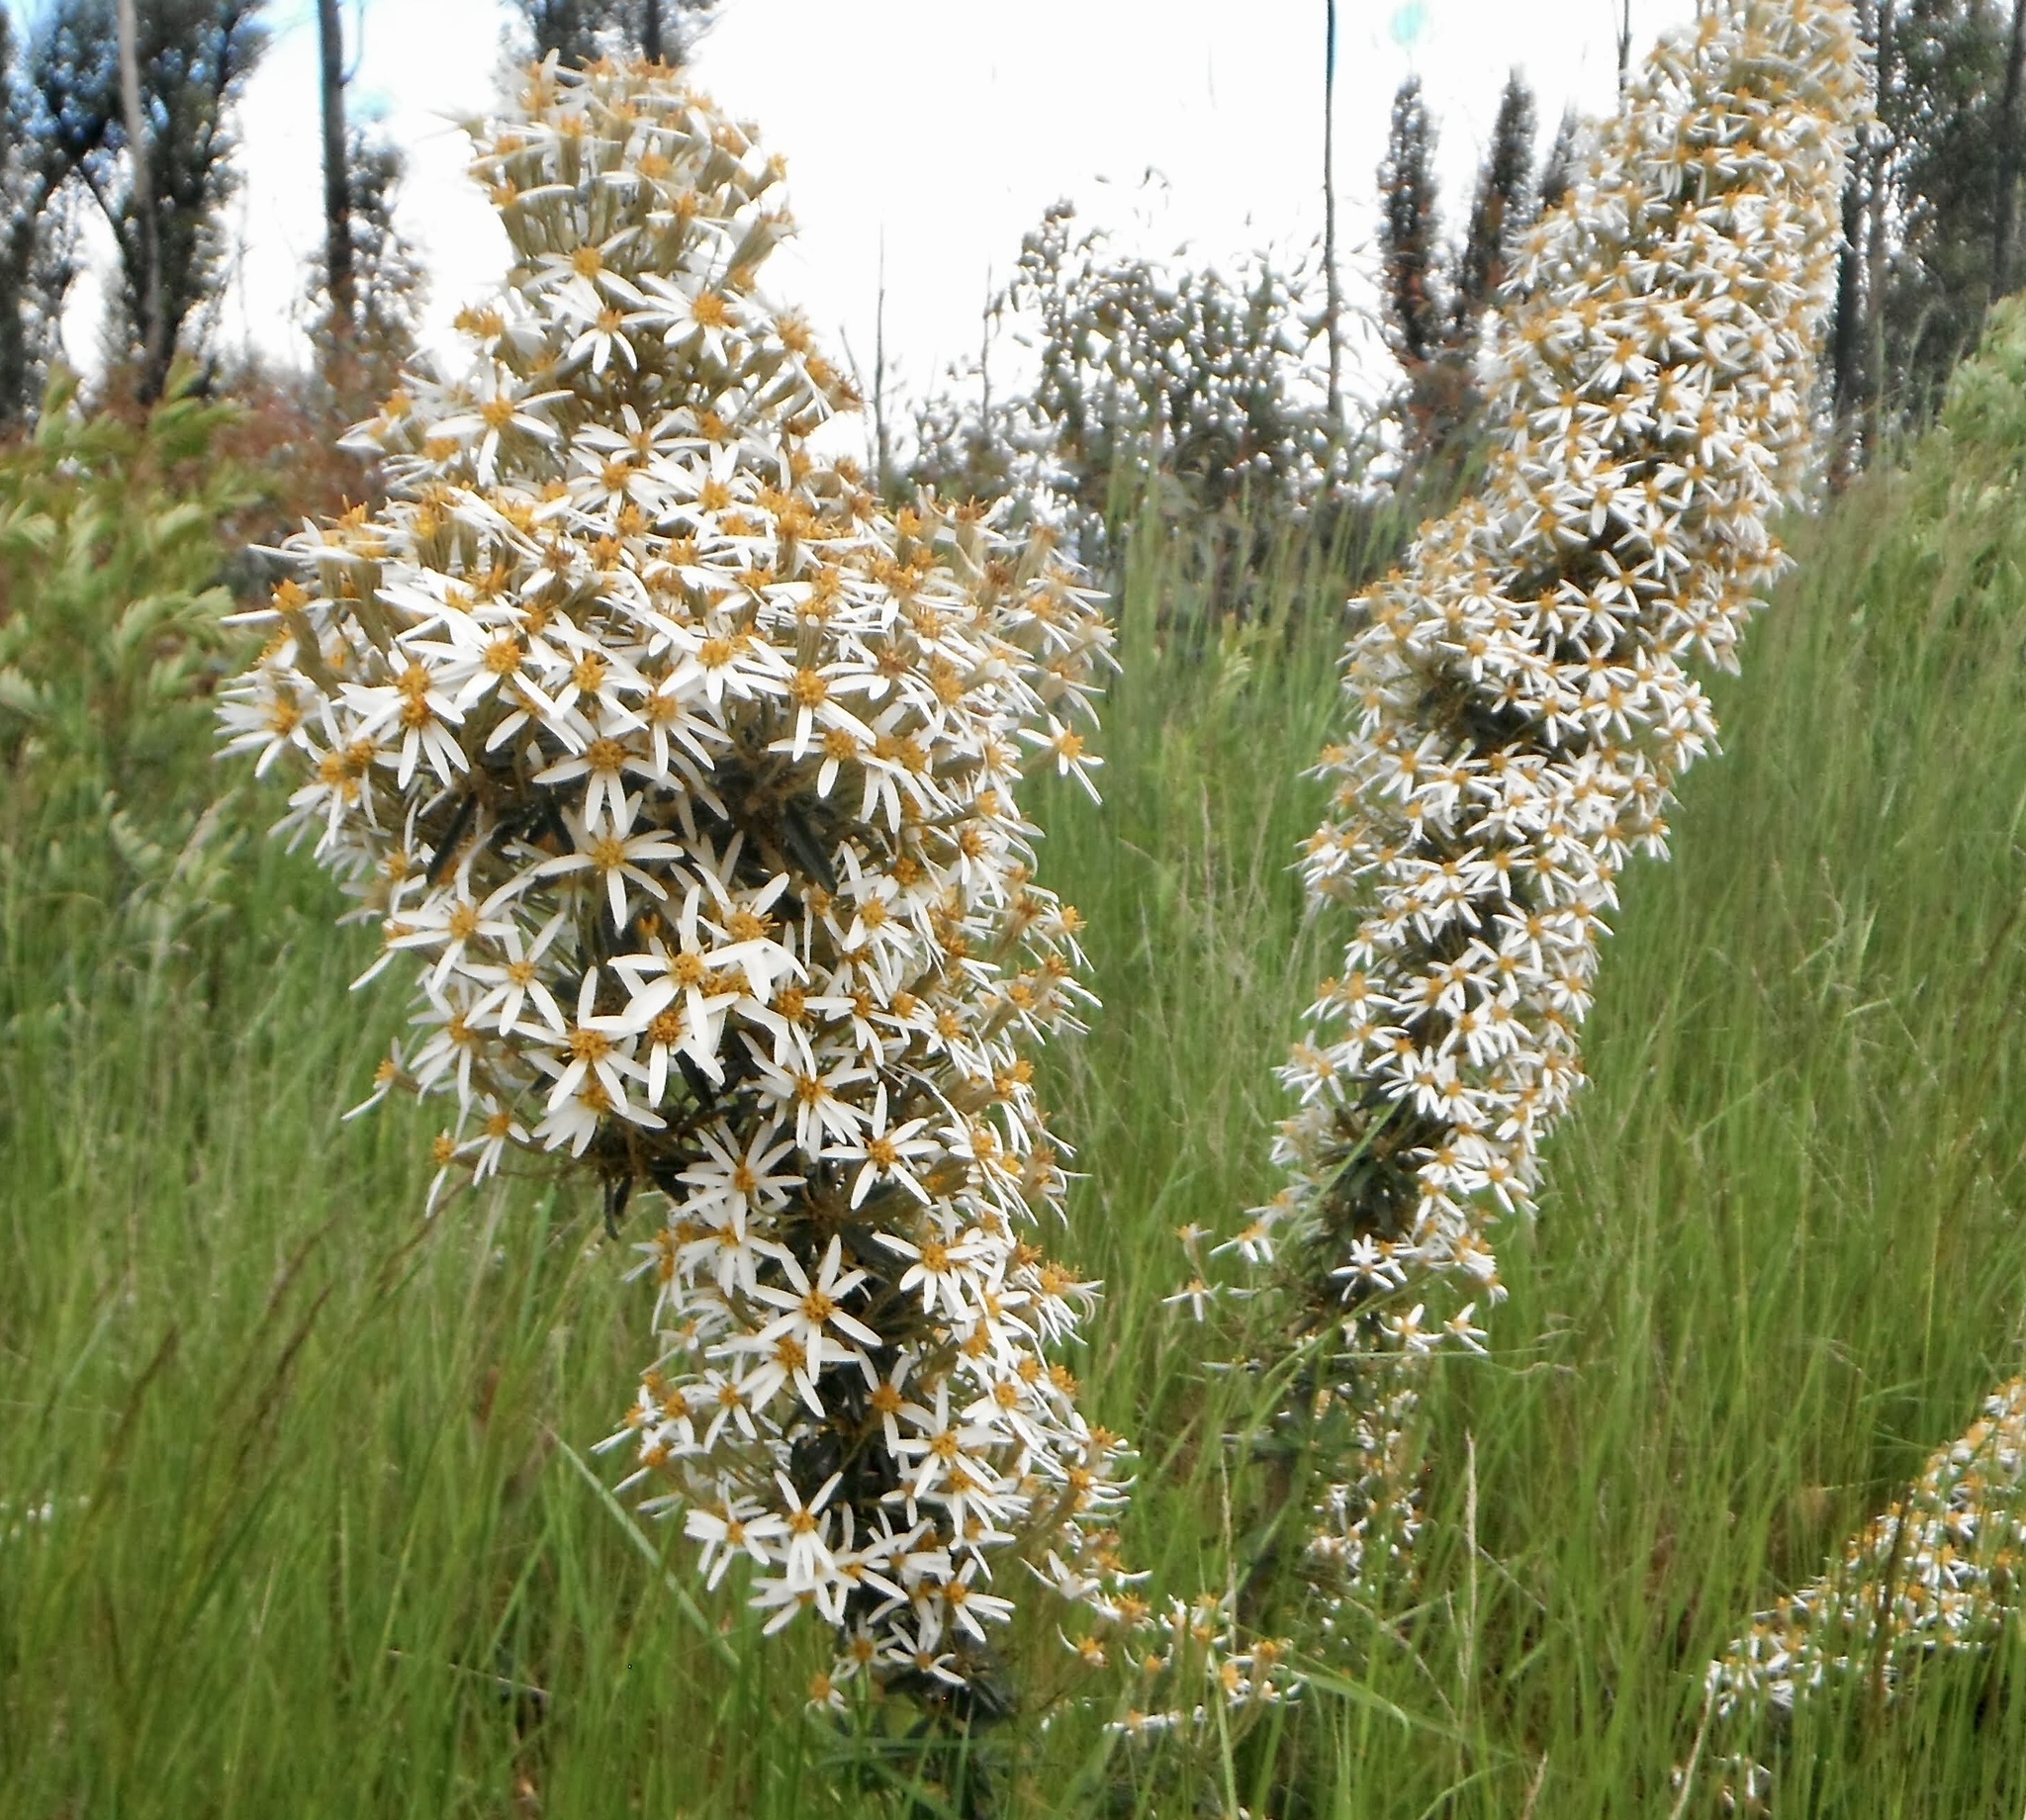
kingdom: Plantae
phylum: Tracheophyta
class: Magnoliopsida
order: Asterales
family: Asteraceae
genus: Olearia
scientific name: Olearia erubescens
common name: Moth daisybush
